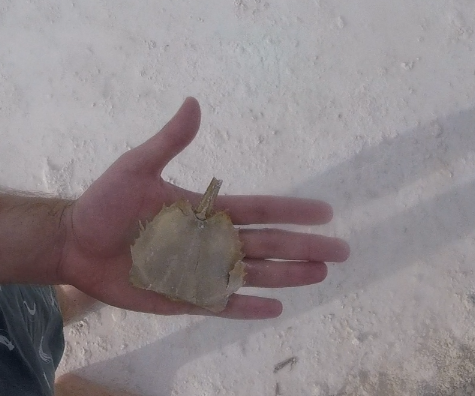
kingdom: Animalia
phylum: Arthropoda
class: Merostomata
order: Xiphosurida
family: Limulidae
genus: Limulus
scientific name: Limulus polyphemus
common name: Horseshoe crab
